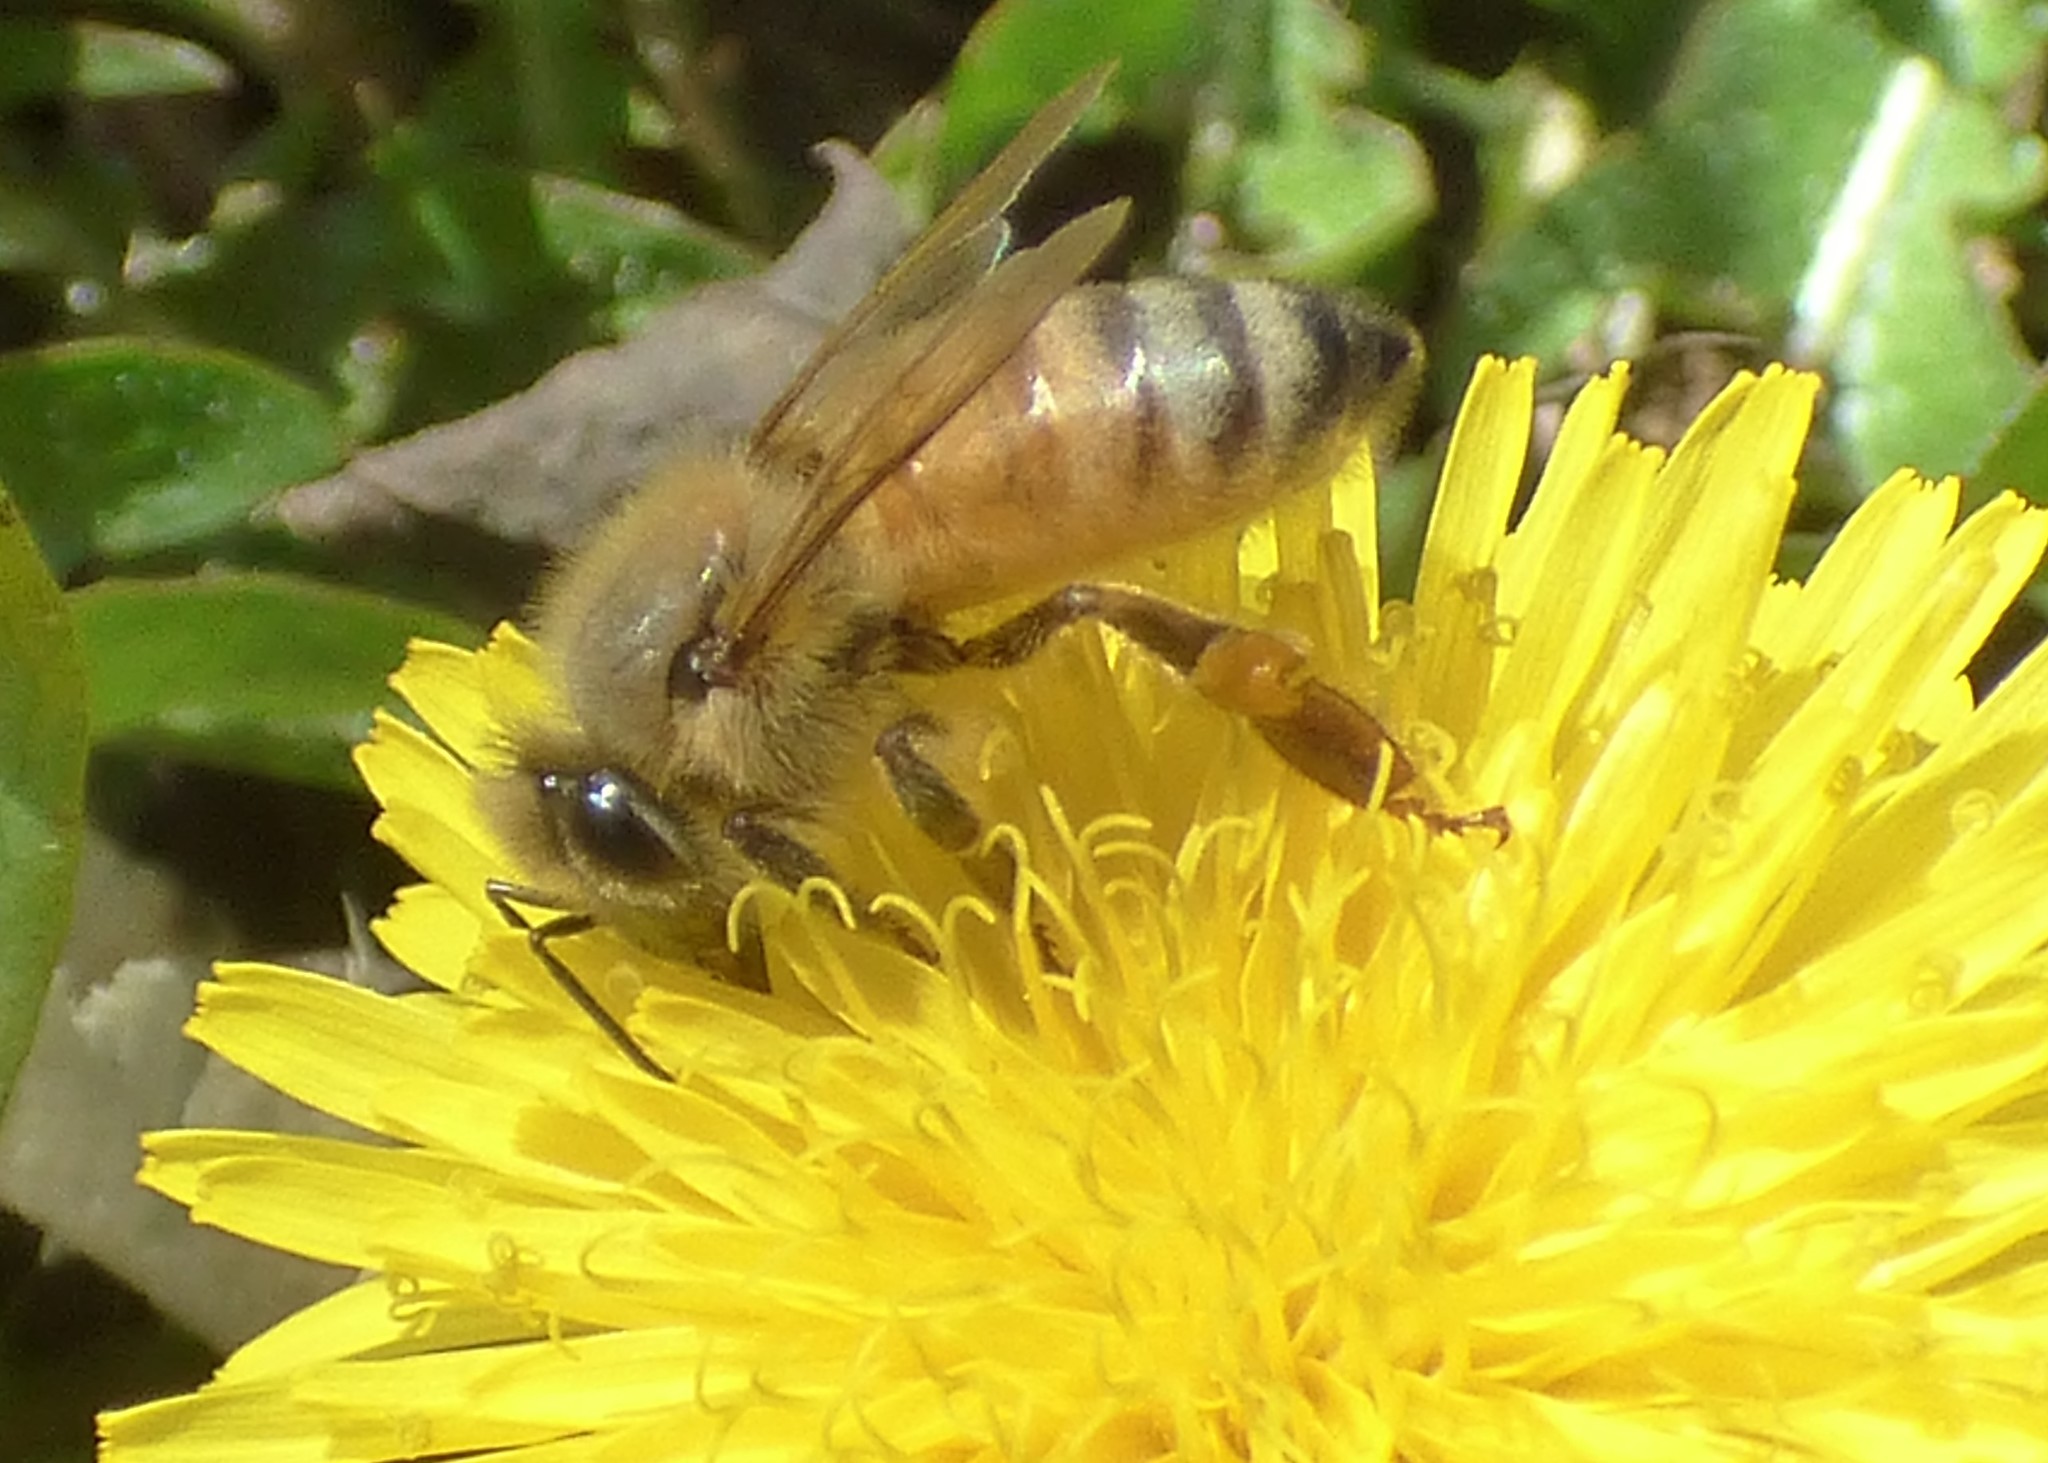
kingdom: Animalia
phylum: Arthropoda
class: Insecta
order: Hymenoptera
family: Apidae
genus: Apis
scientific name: Apis mellifera
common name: Honey bee
